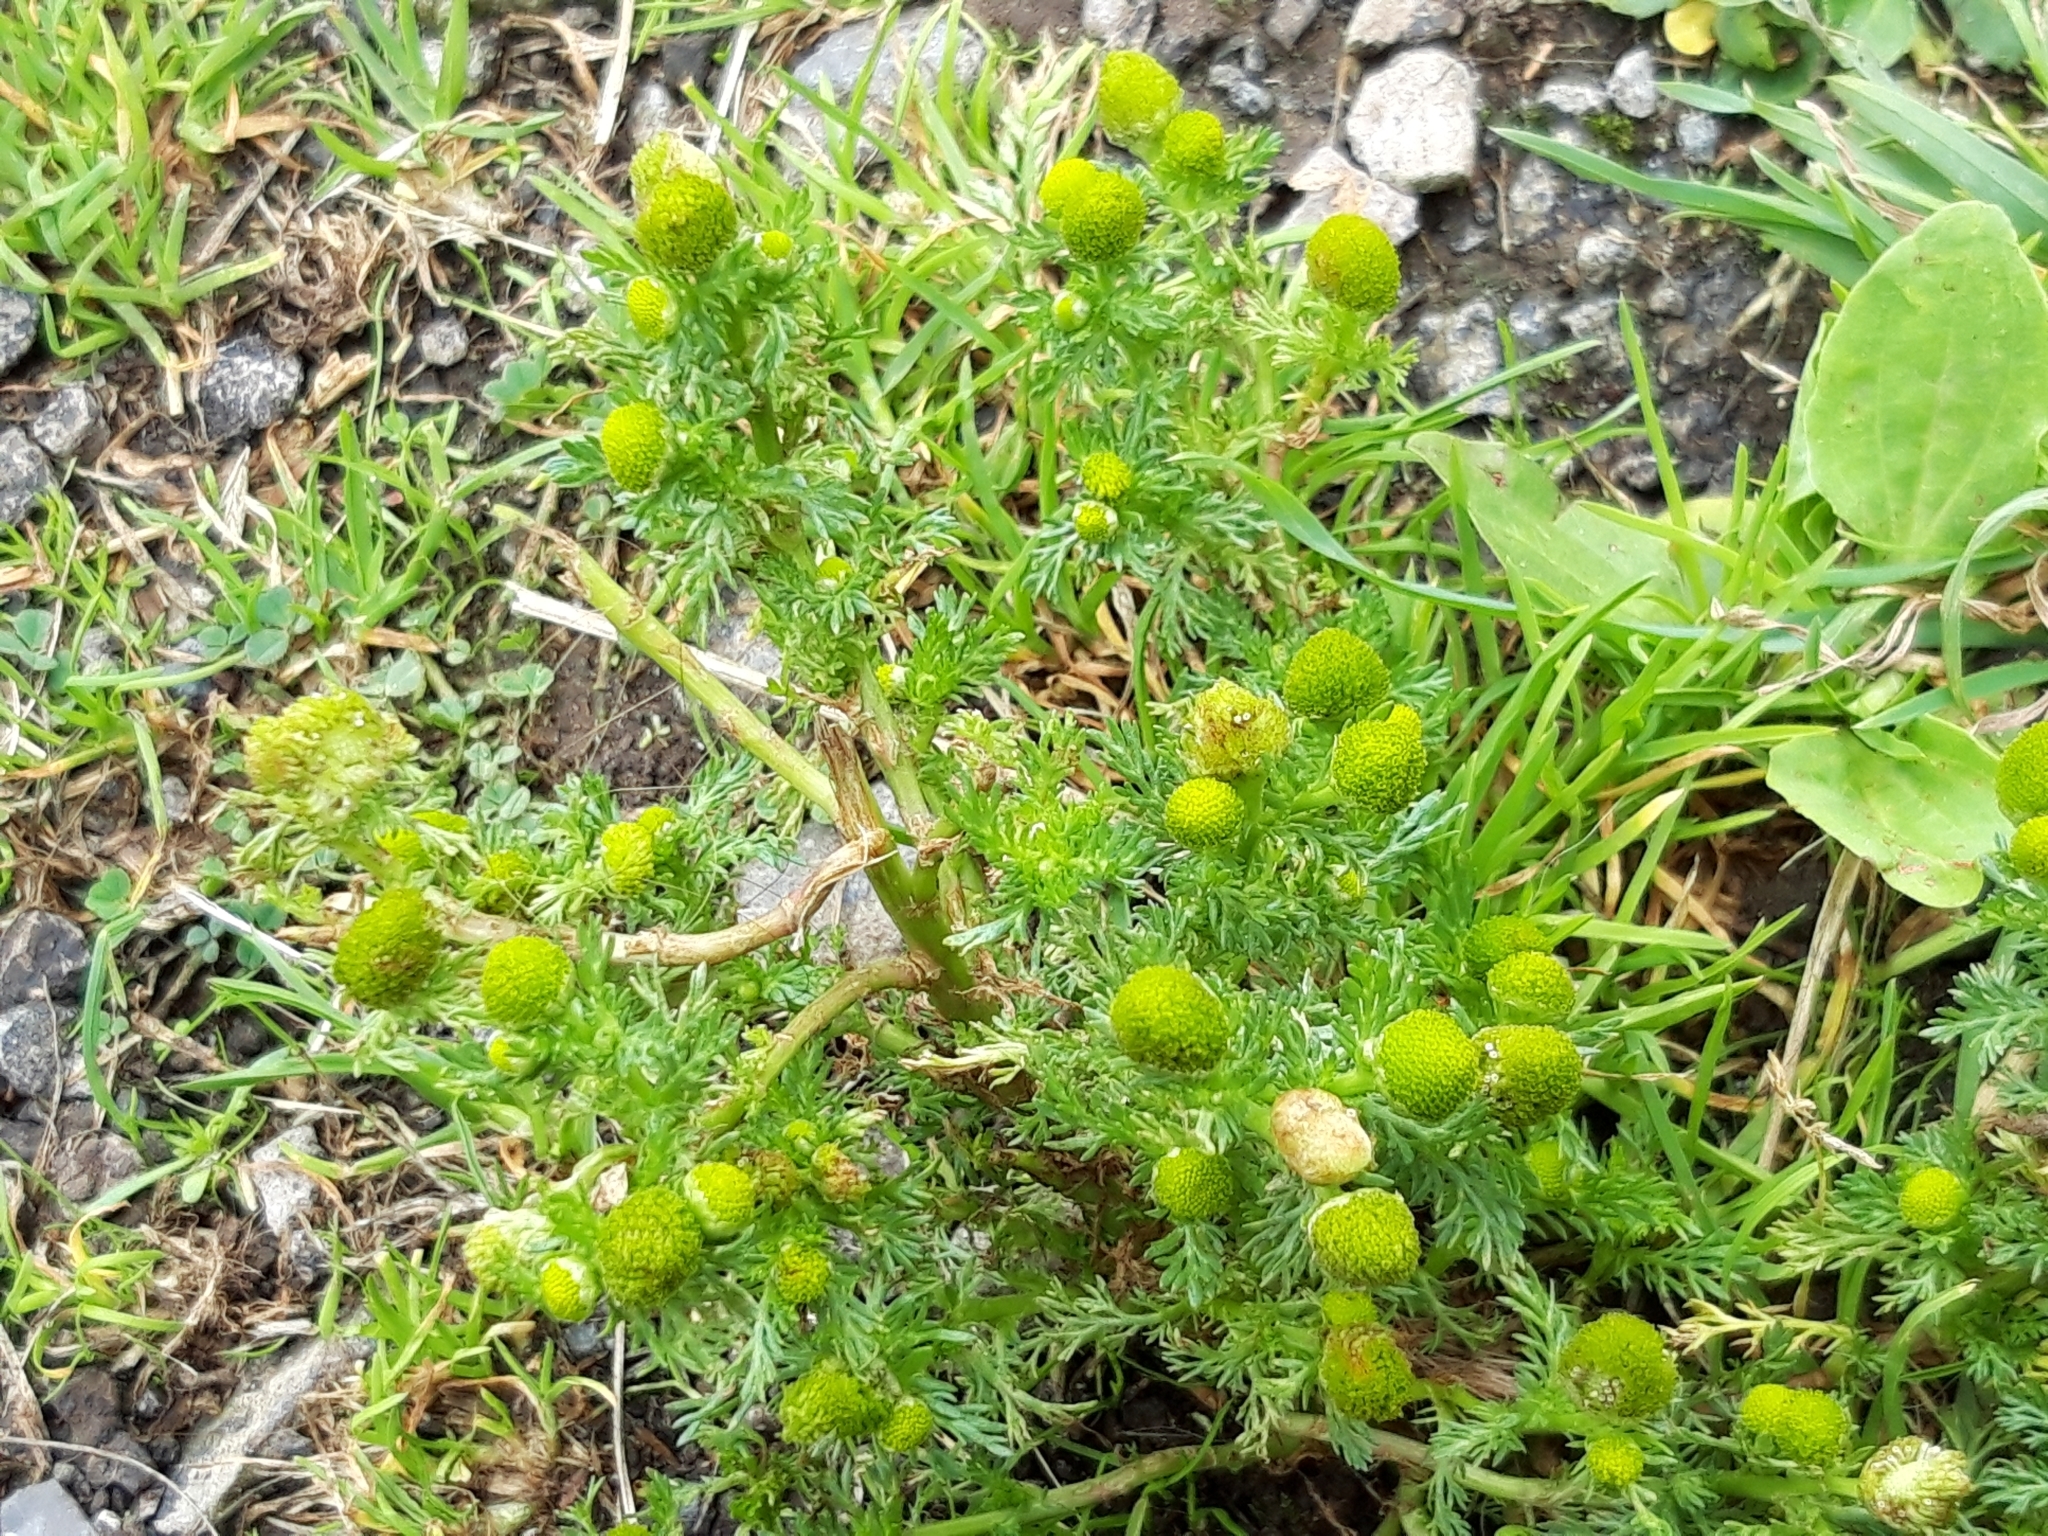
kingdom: Plantae
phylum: Tracheophyta
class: Magnoliopsida
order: Asterales
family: Asteraceae
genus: Matricaria
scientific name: Matricaria discoidea
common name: Disc mayweed
